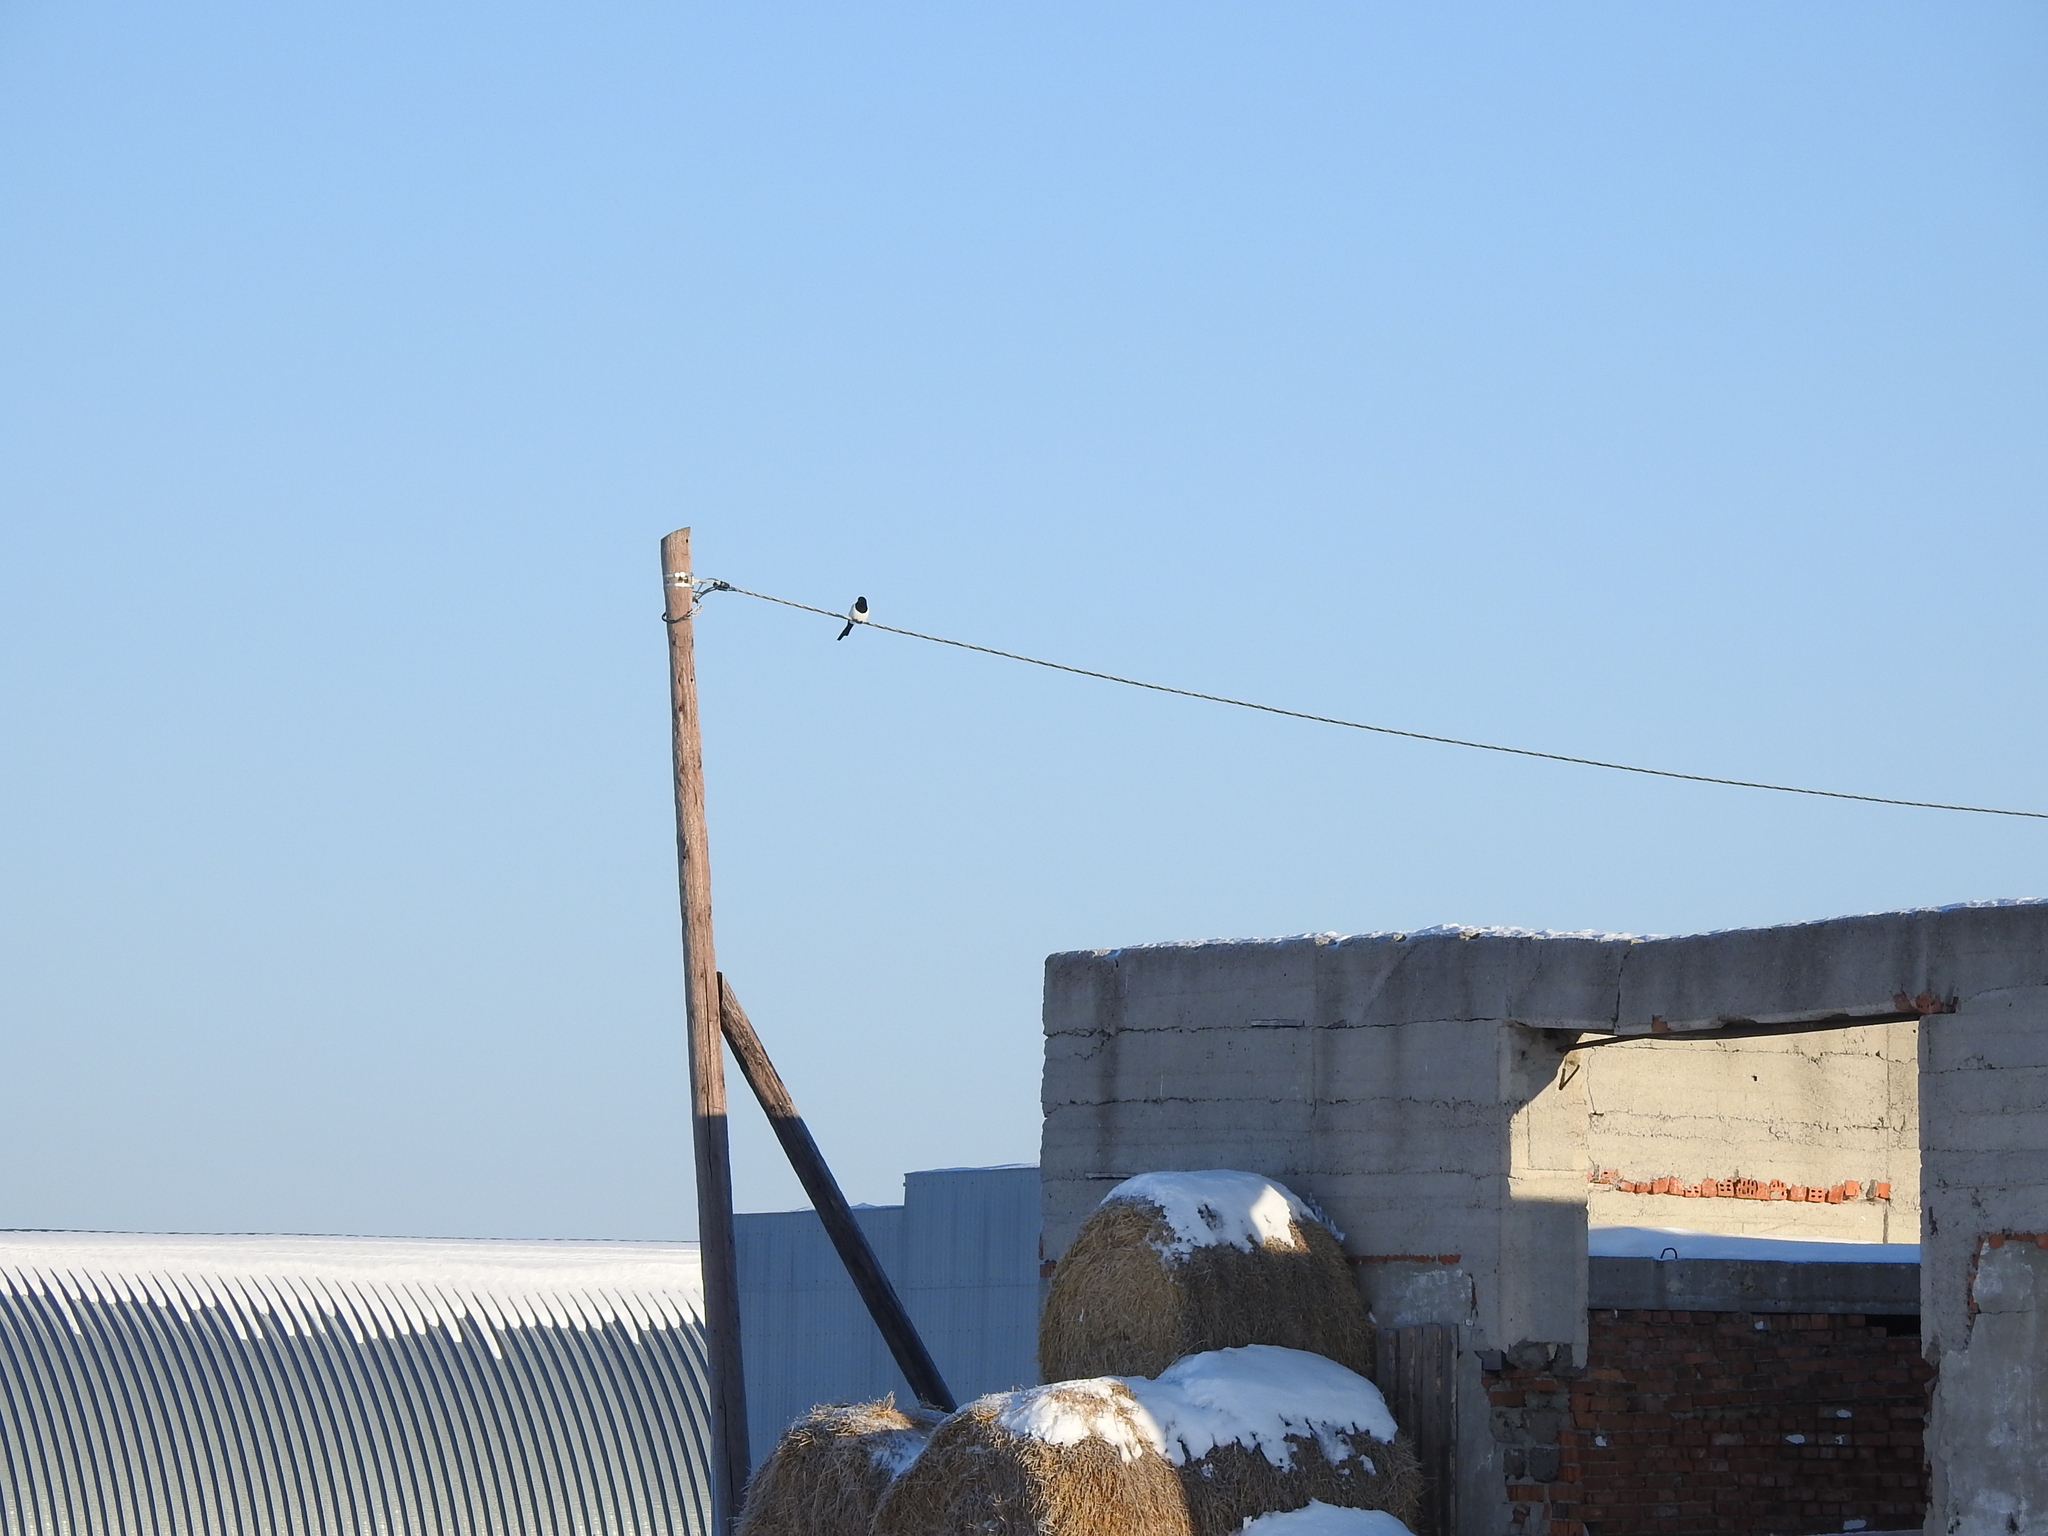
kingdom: Animalia
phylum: Chordata
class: Aves
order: Passeriformes
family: Corvidae
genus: Pica
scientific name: Pica pica
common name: Eurasian magpie
